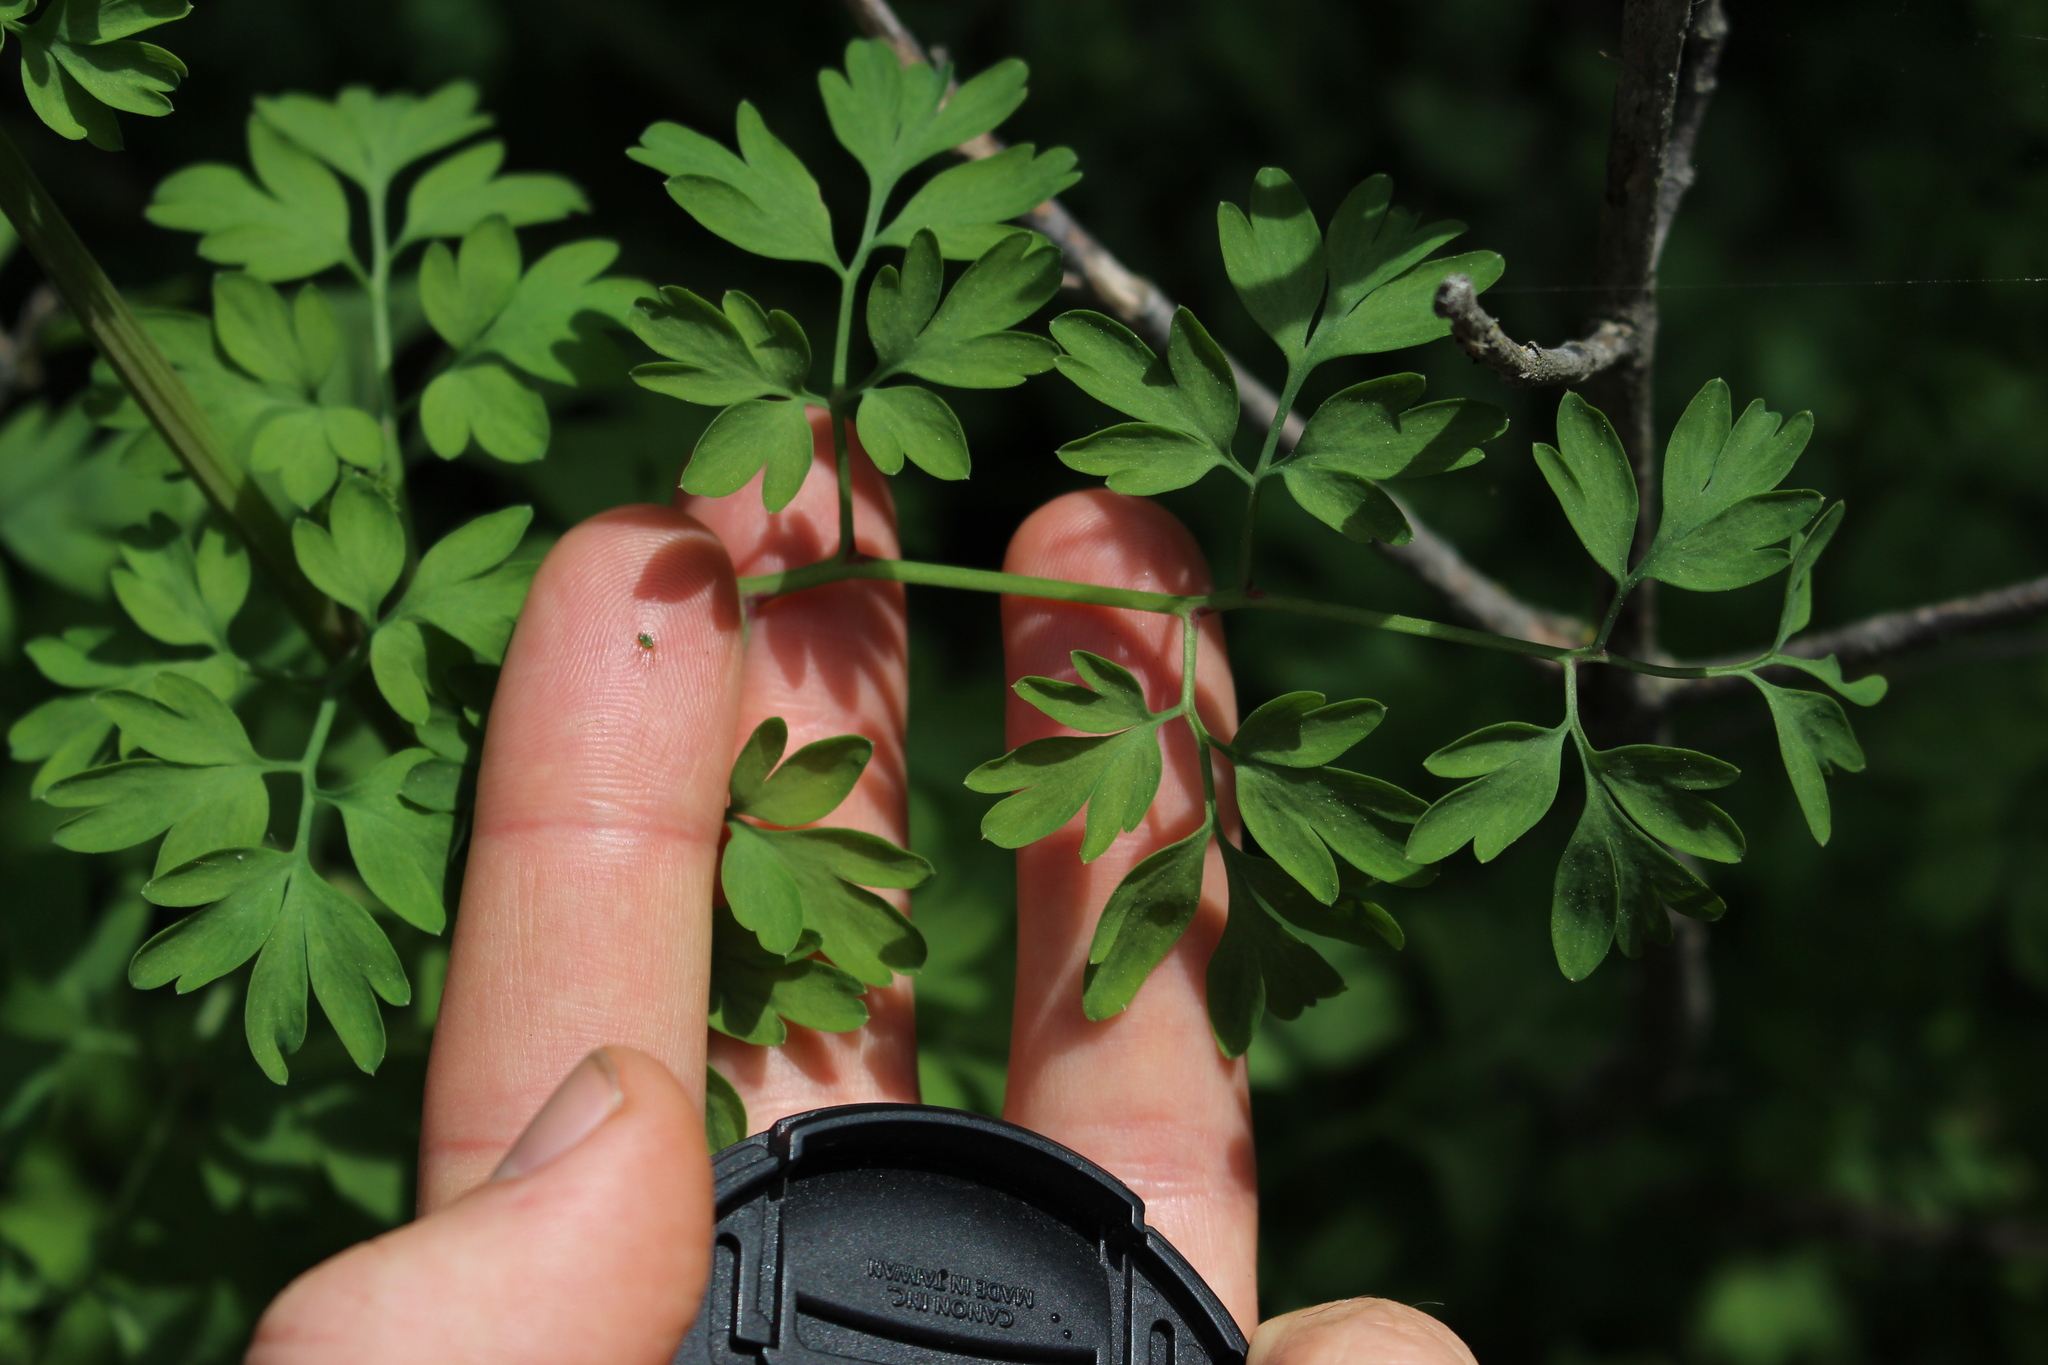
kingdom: Plantae
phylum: Tracheophyta
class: Magnoliopsida
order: Ranunculales
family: Papaveraceae
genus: Fumaria
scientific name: Fumaria muralis
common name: Common ramping-fumitory
